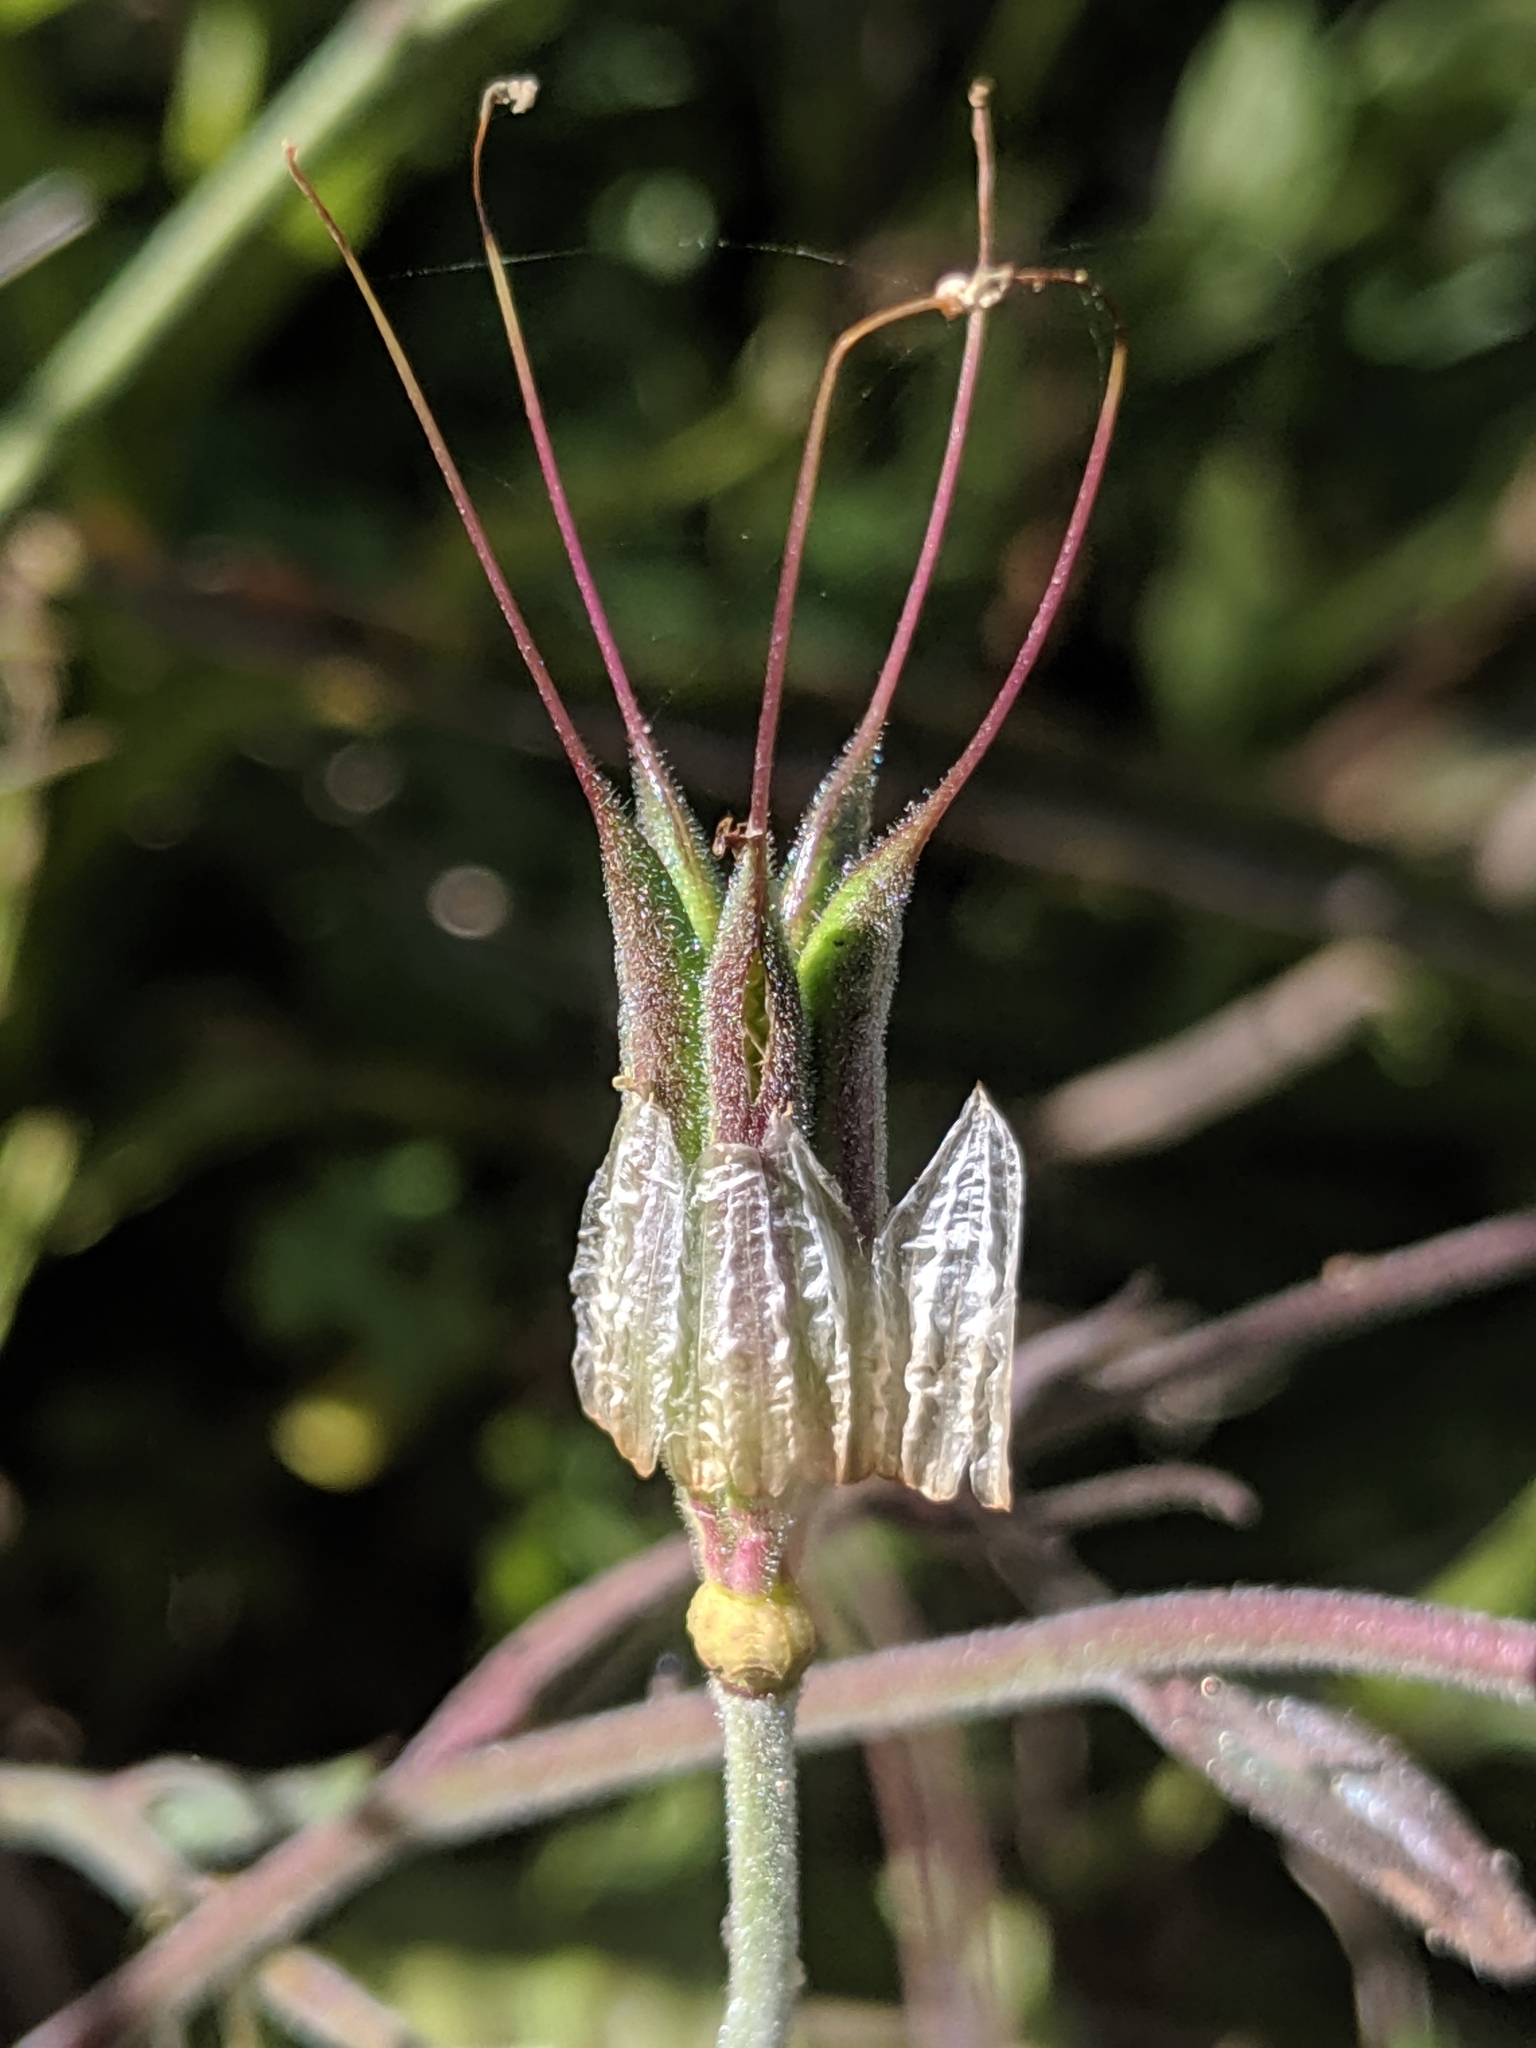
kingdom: Plantae
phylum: Tracheophyta
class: Magnoliopsida
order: Ranunculales
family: Ranunculaceae
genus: Aquilegia
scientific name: Aquilegia eximia
